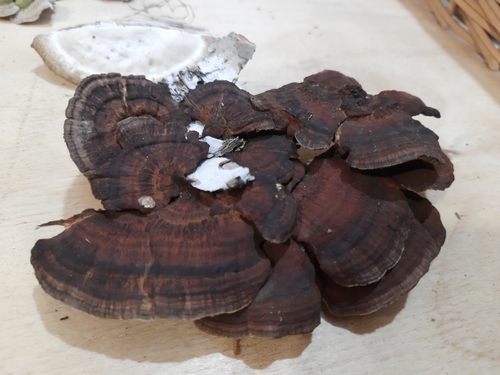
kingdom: Fungi
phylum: Basidiomycota
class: Agaricomycetes
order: Polyporales
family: Polyporaceae
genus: Daedaleopsis
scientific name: Daedaleopsis tricolor
